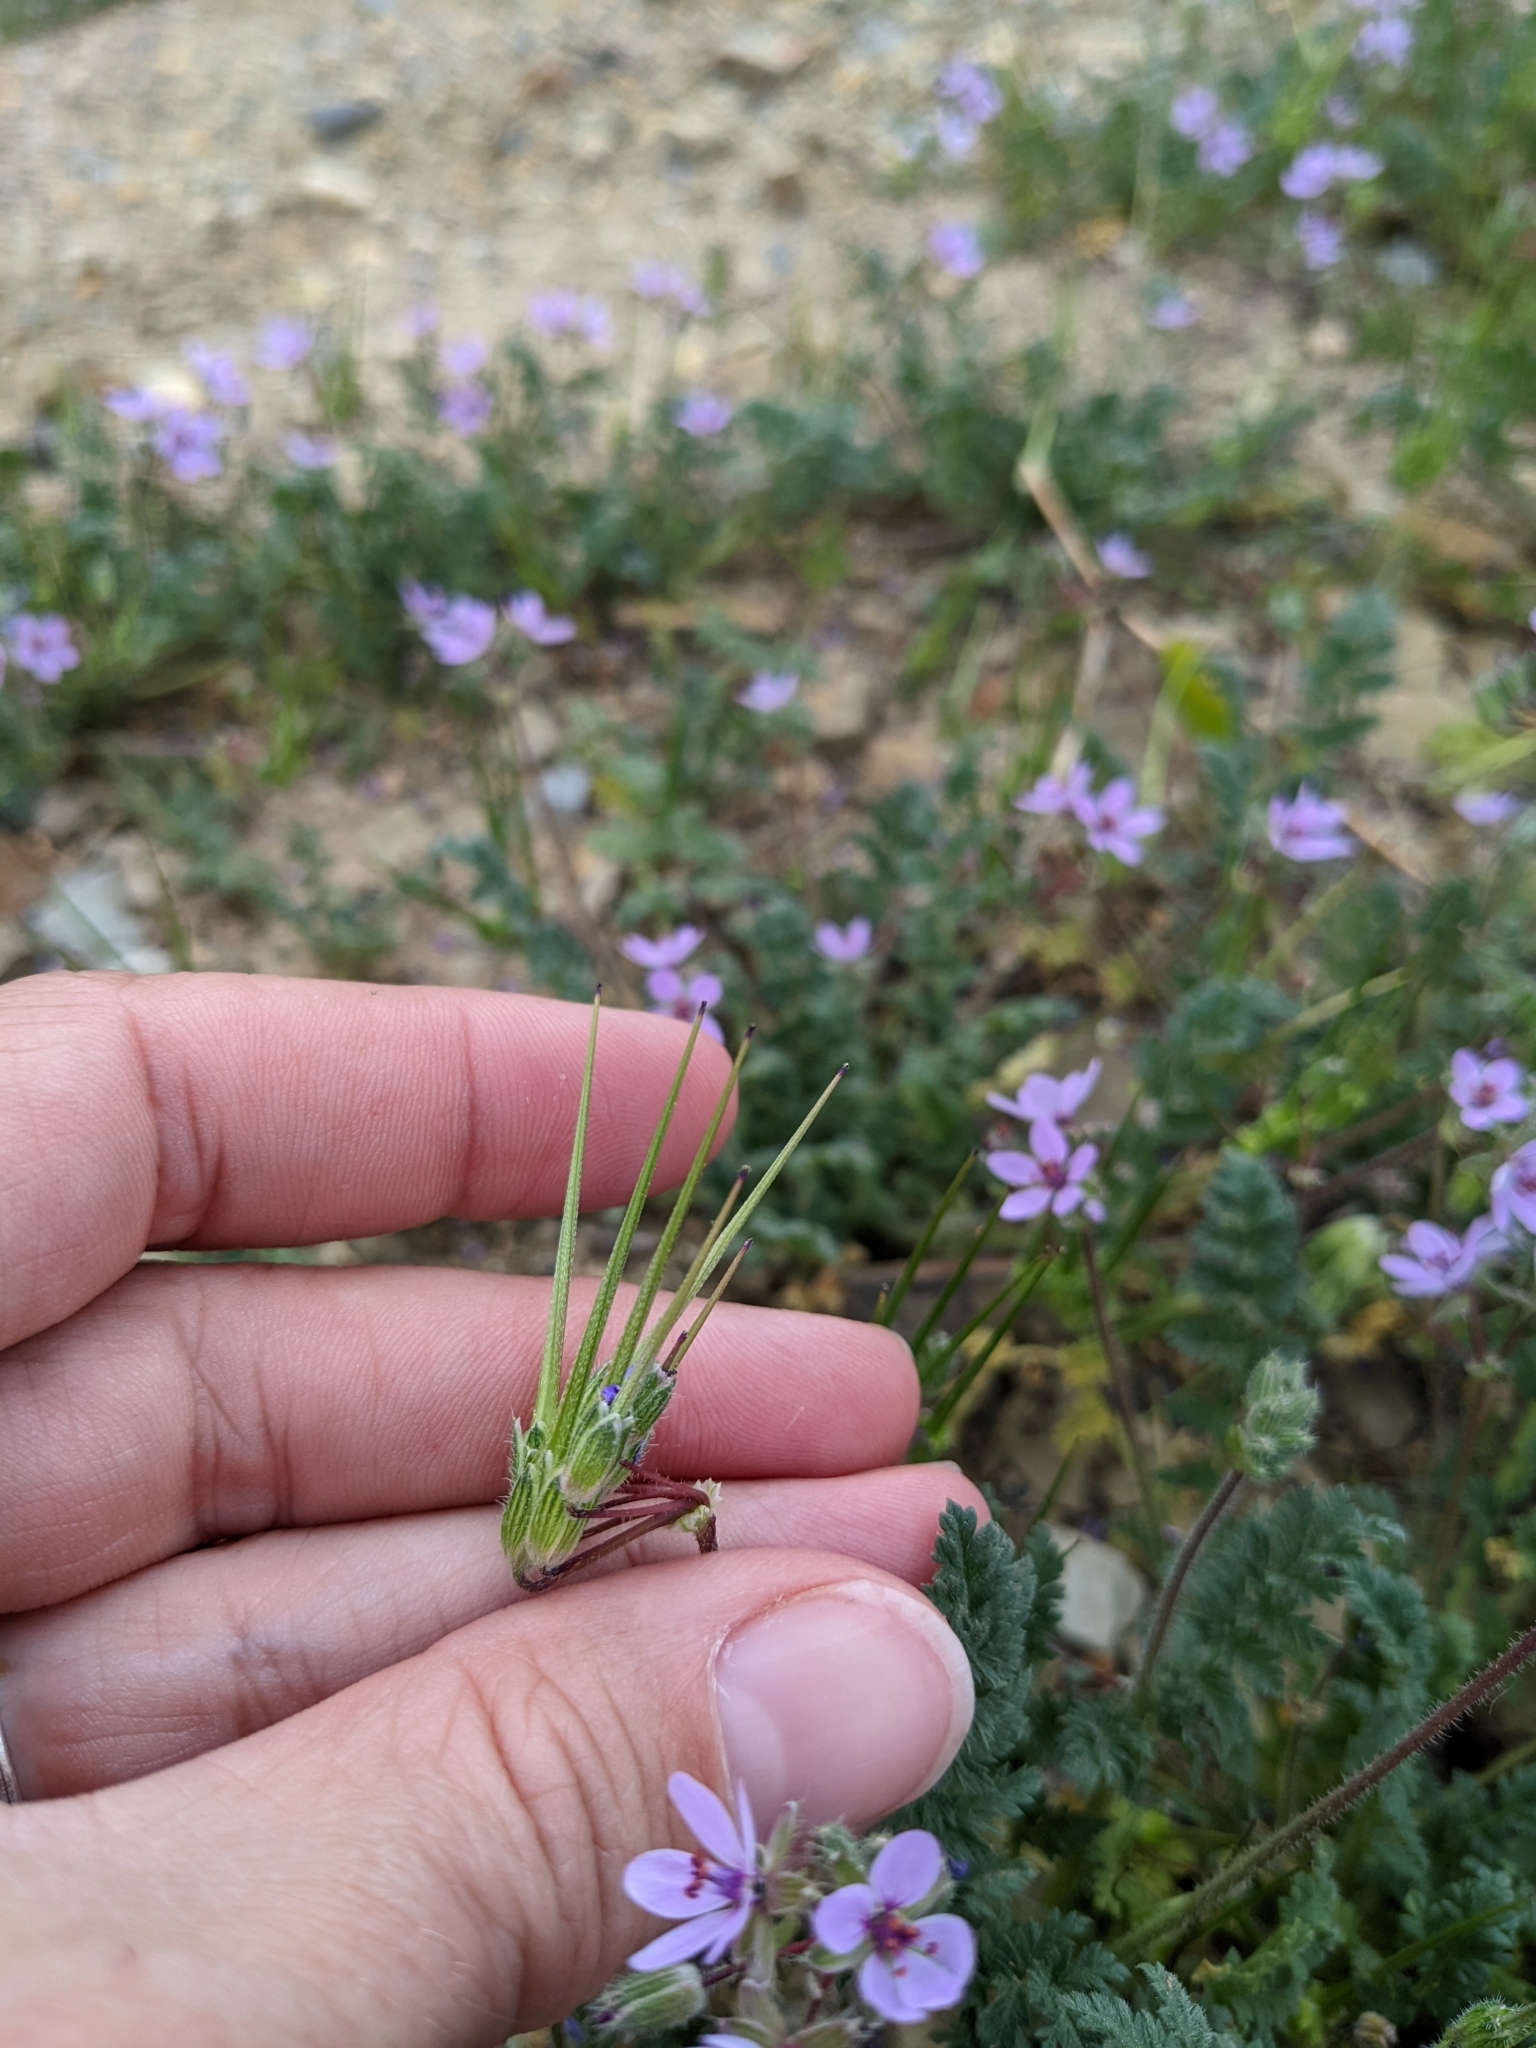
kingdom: Plantae
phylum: Tracheophyta
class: Magnoliopsida
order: Geraniales
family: Geraniaceae
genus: Erodium
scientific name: Erodium cicutarium
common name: Common stork's-bill
